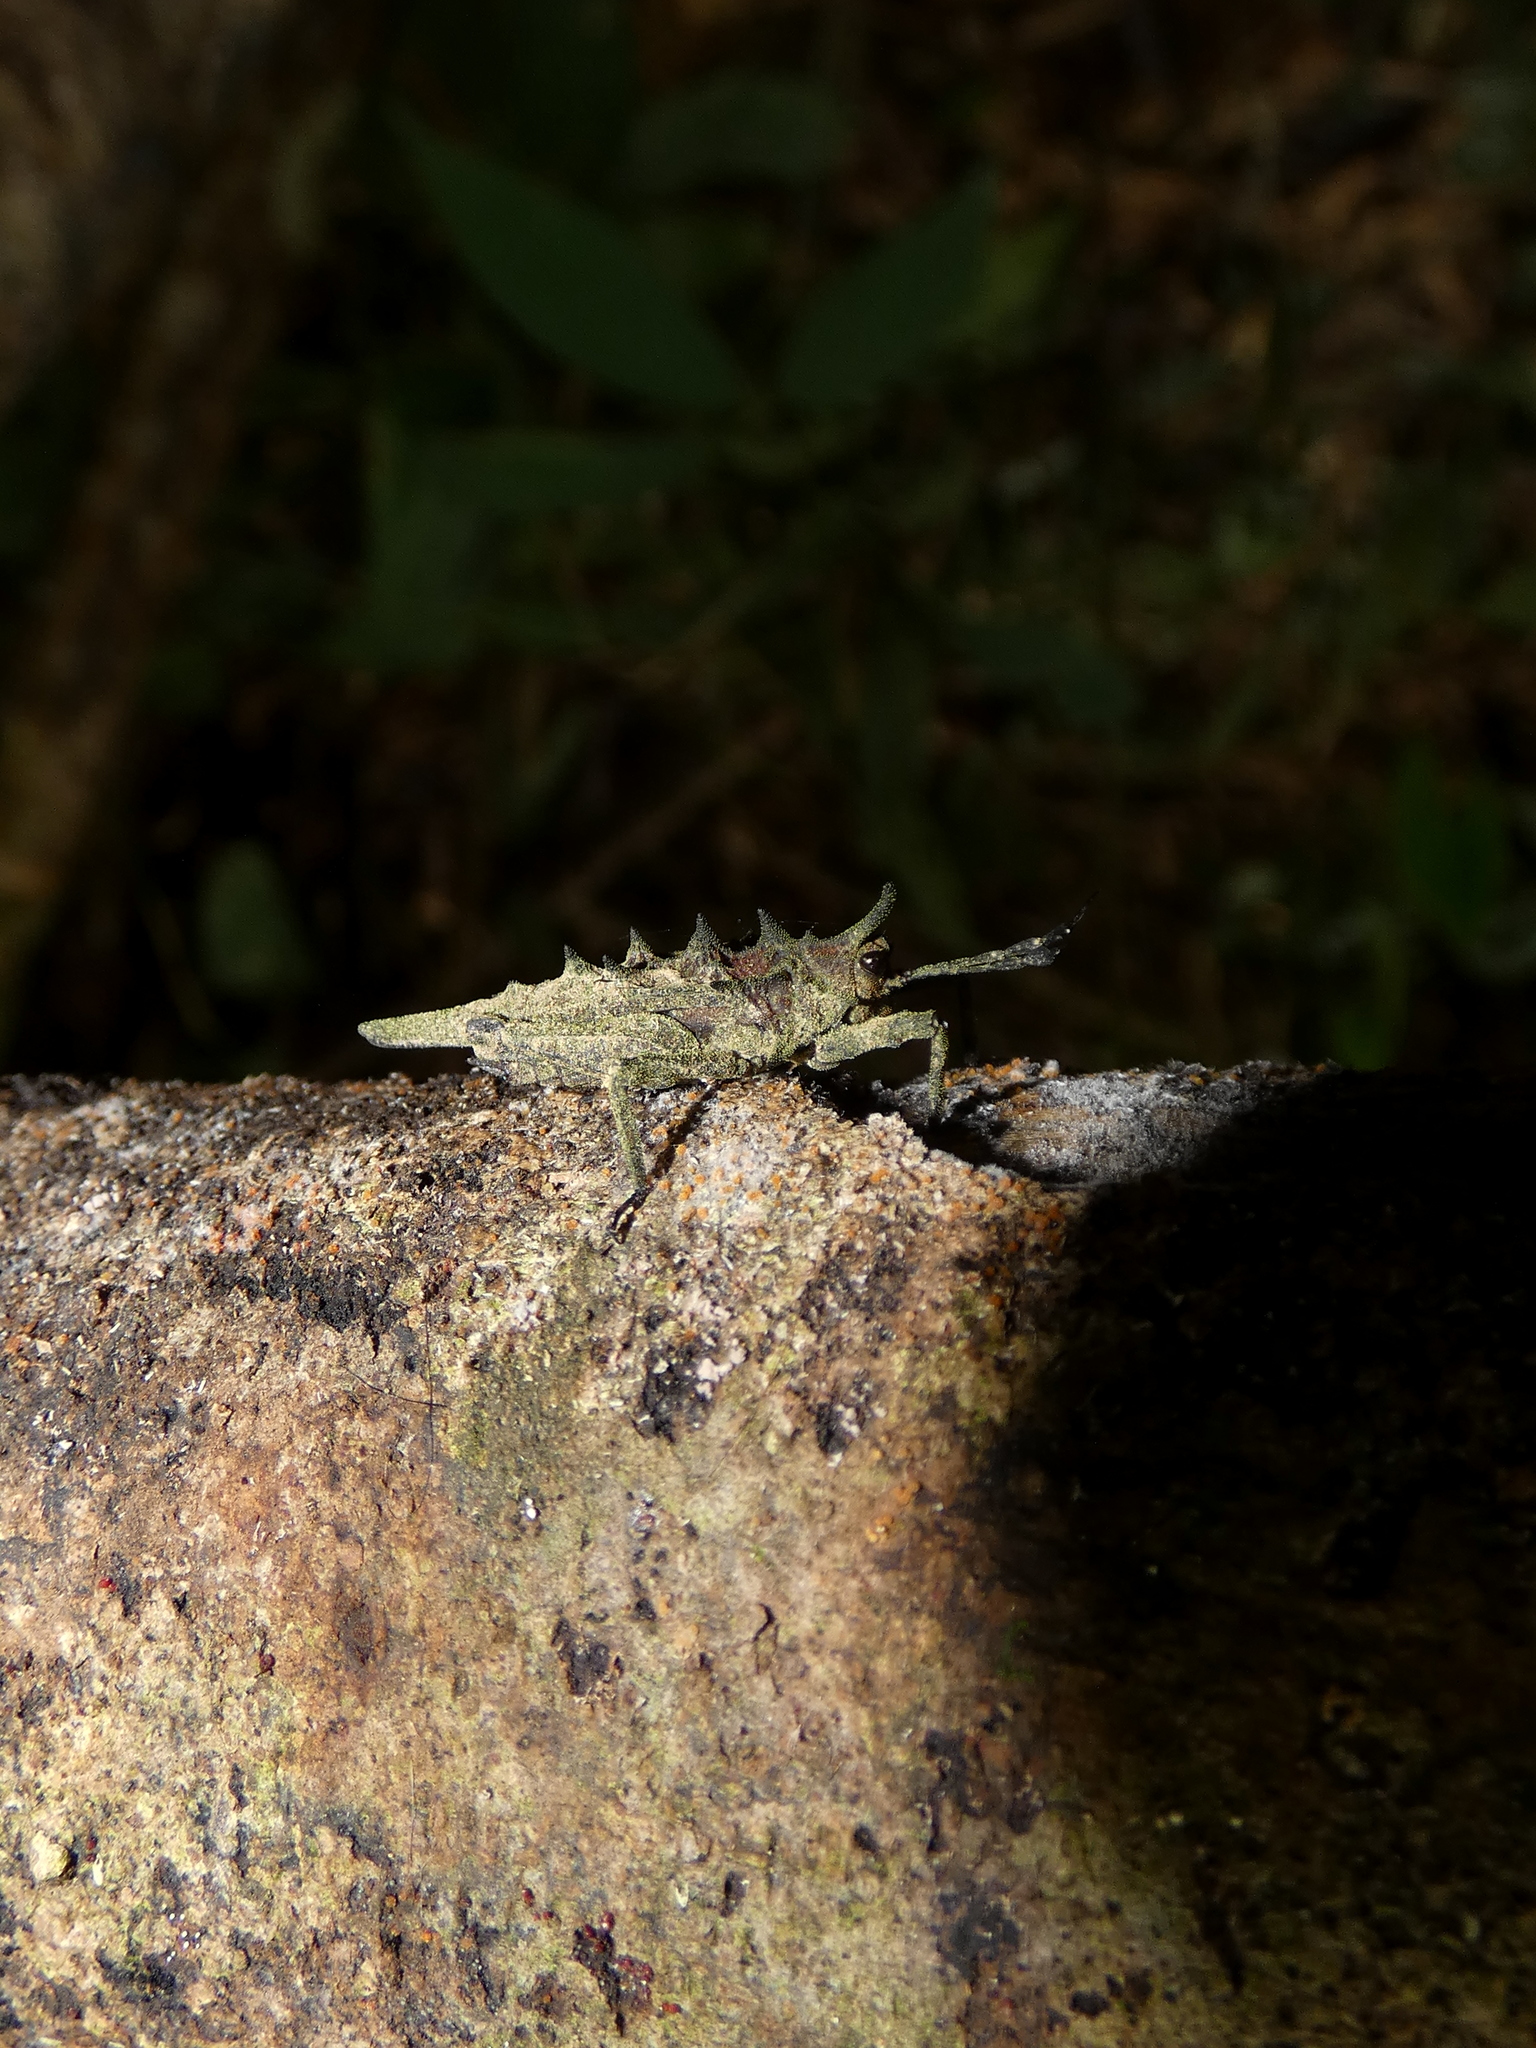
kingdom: Animalia
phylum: Arthropoda
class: Insecta
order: Orthoptera
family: Tetrigidae
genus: Discotettix
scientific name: Discotettix belzebuth
